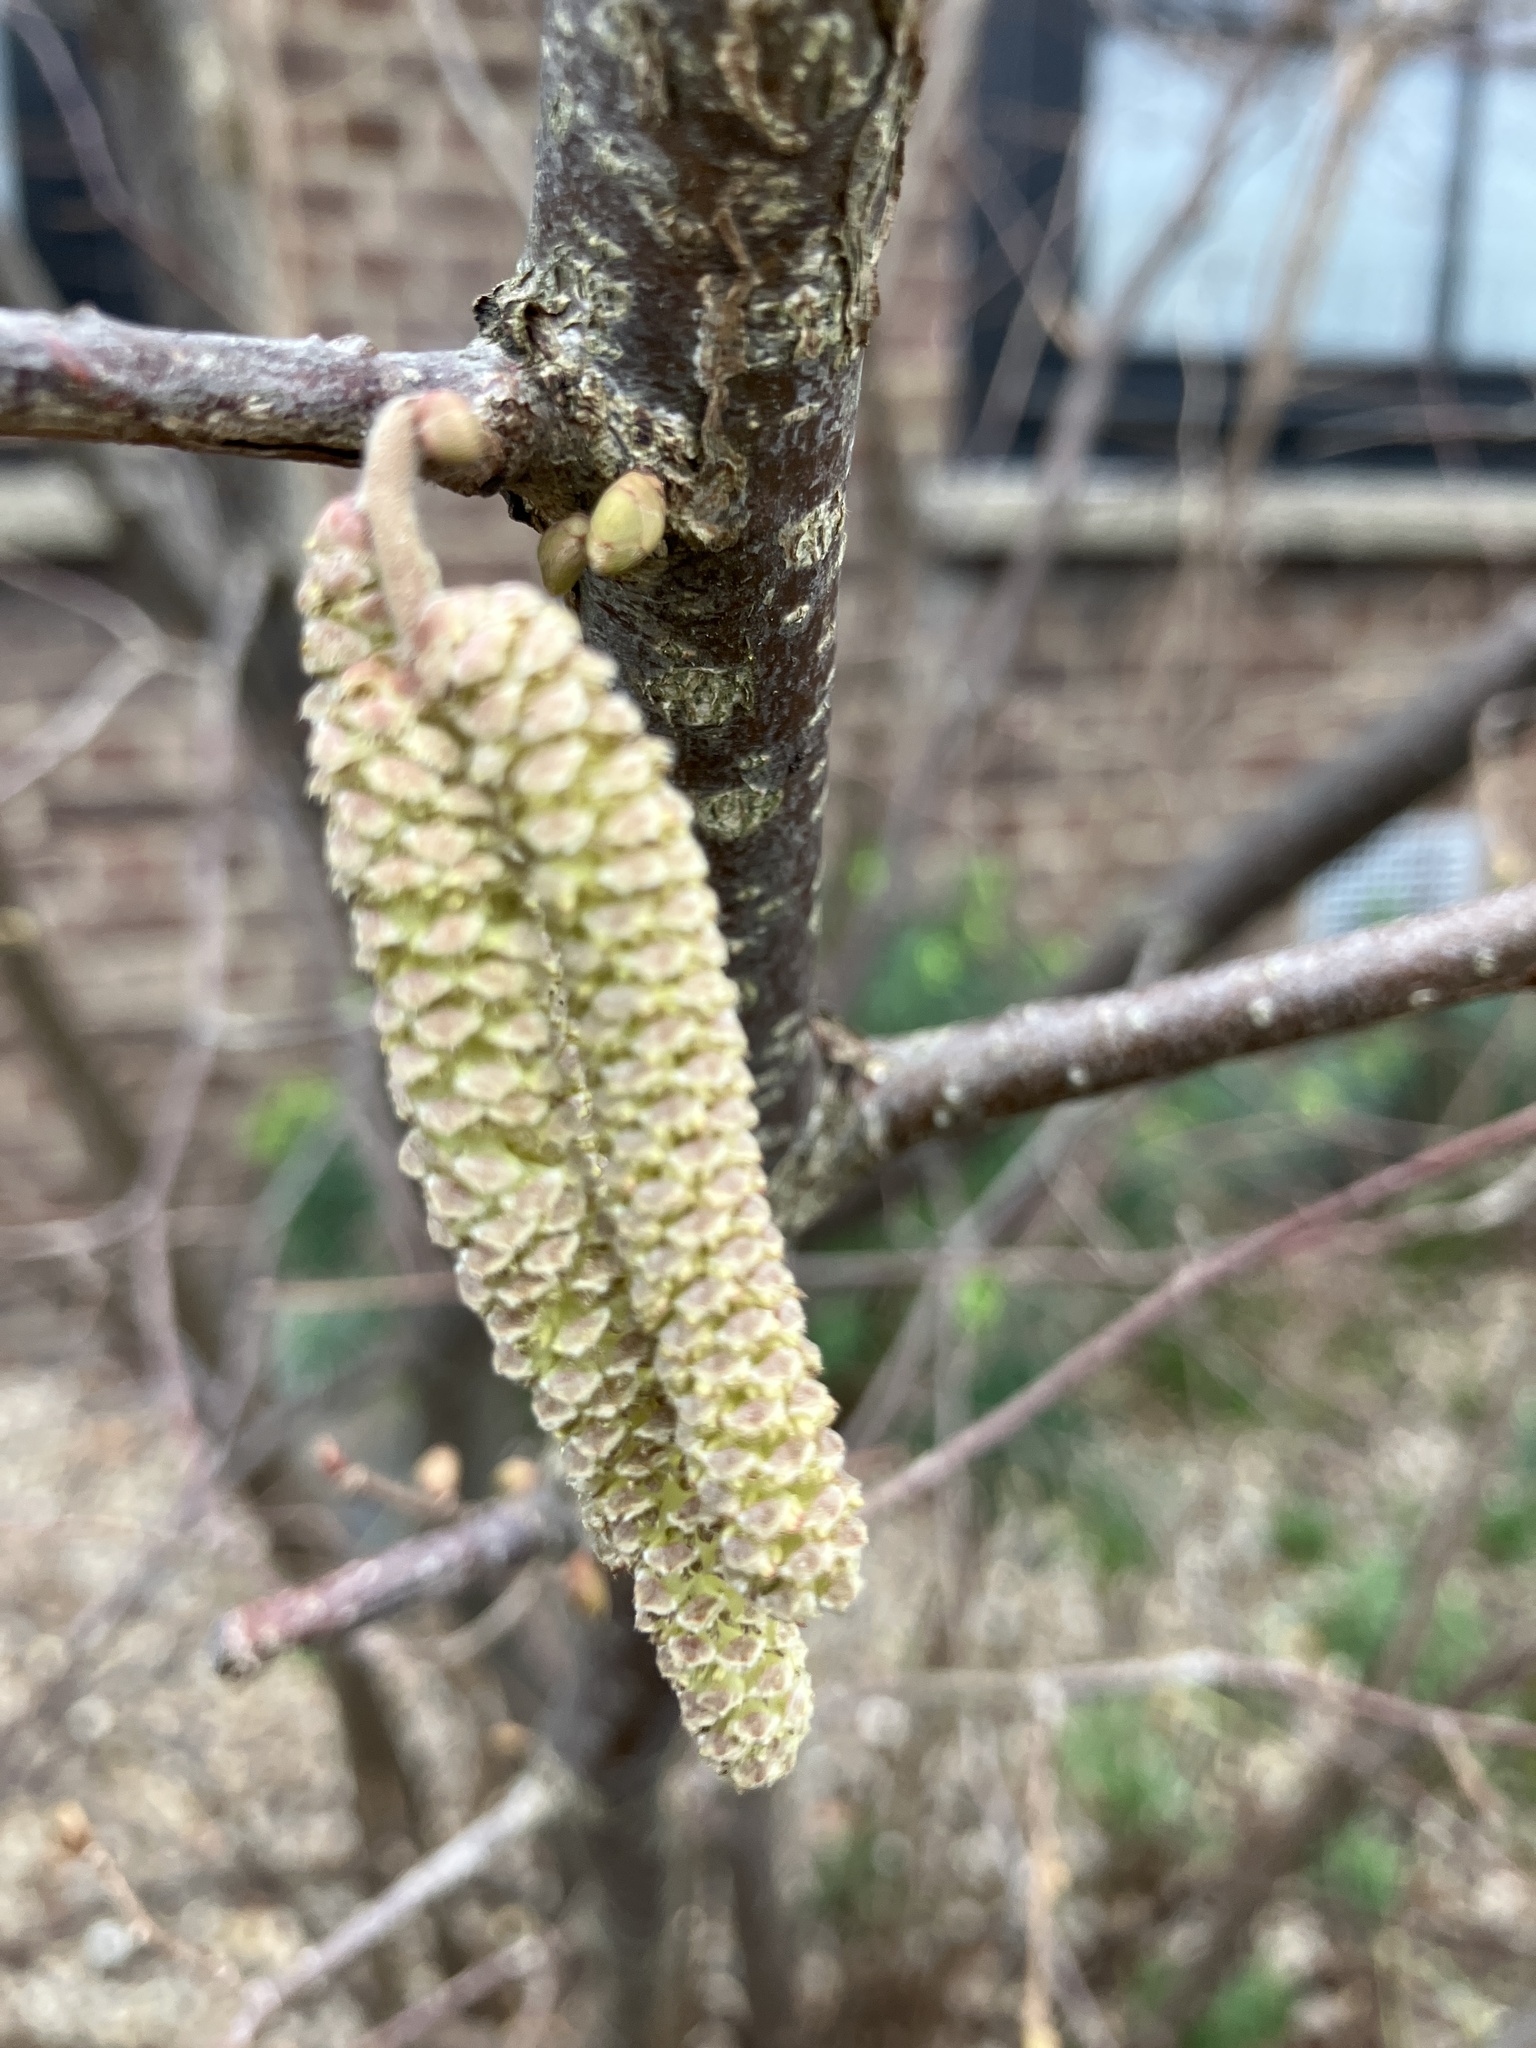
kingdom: Plantae
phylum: Tracheophyta
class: Magnoliopsida
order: Fagales
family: Betulaceae
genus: Corylus
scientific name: Corylus avellana
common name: European hazel
